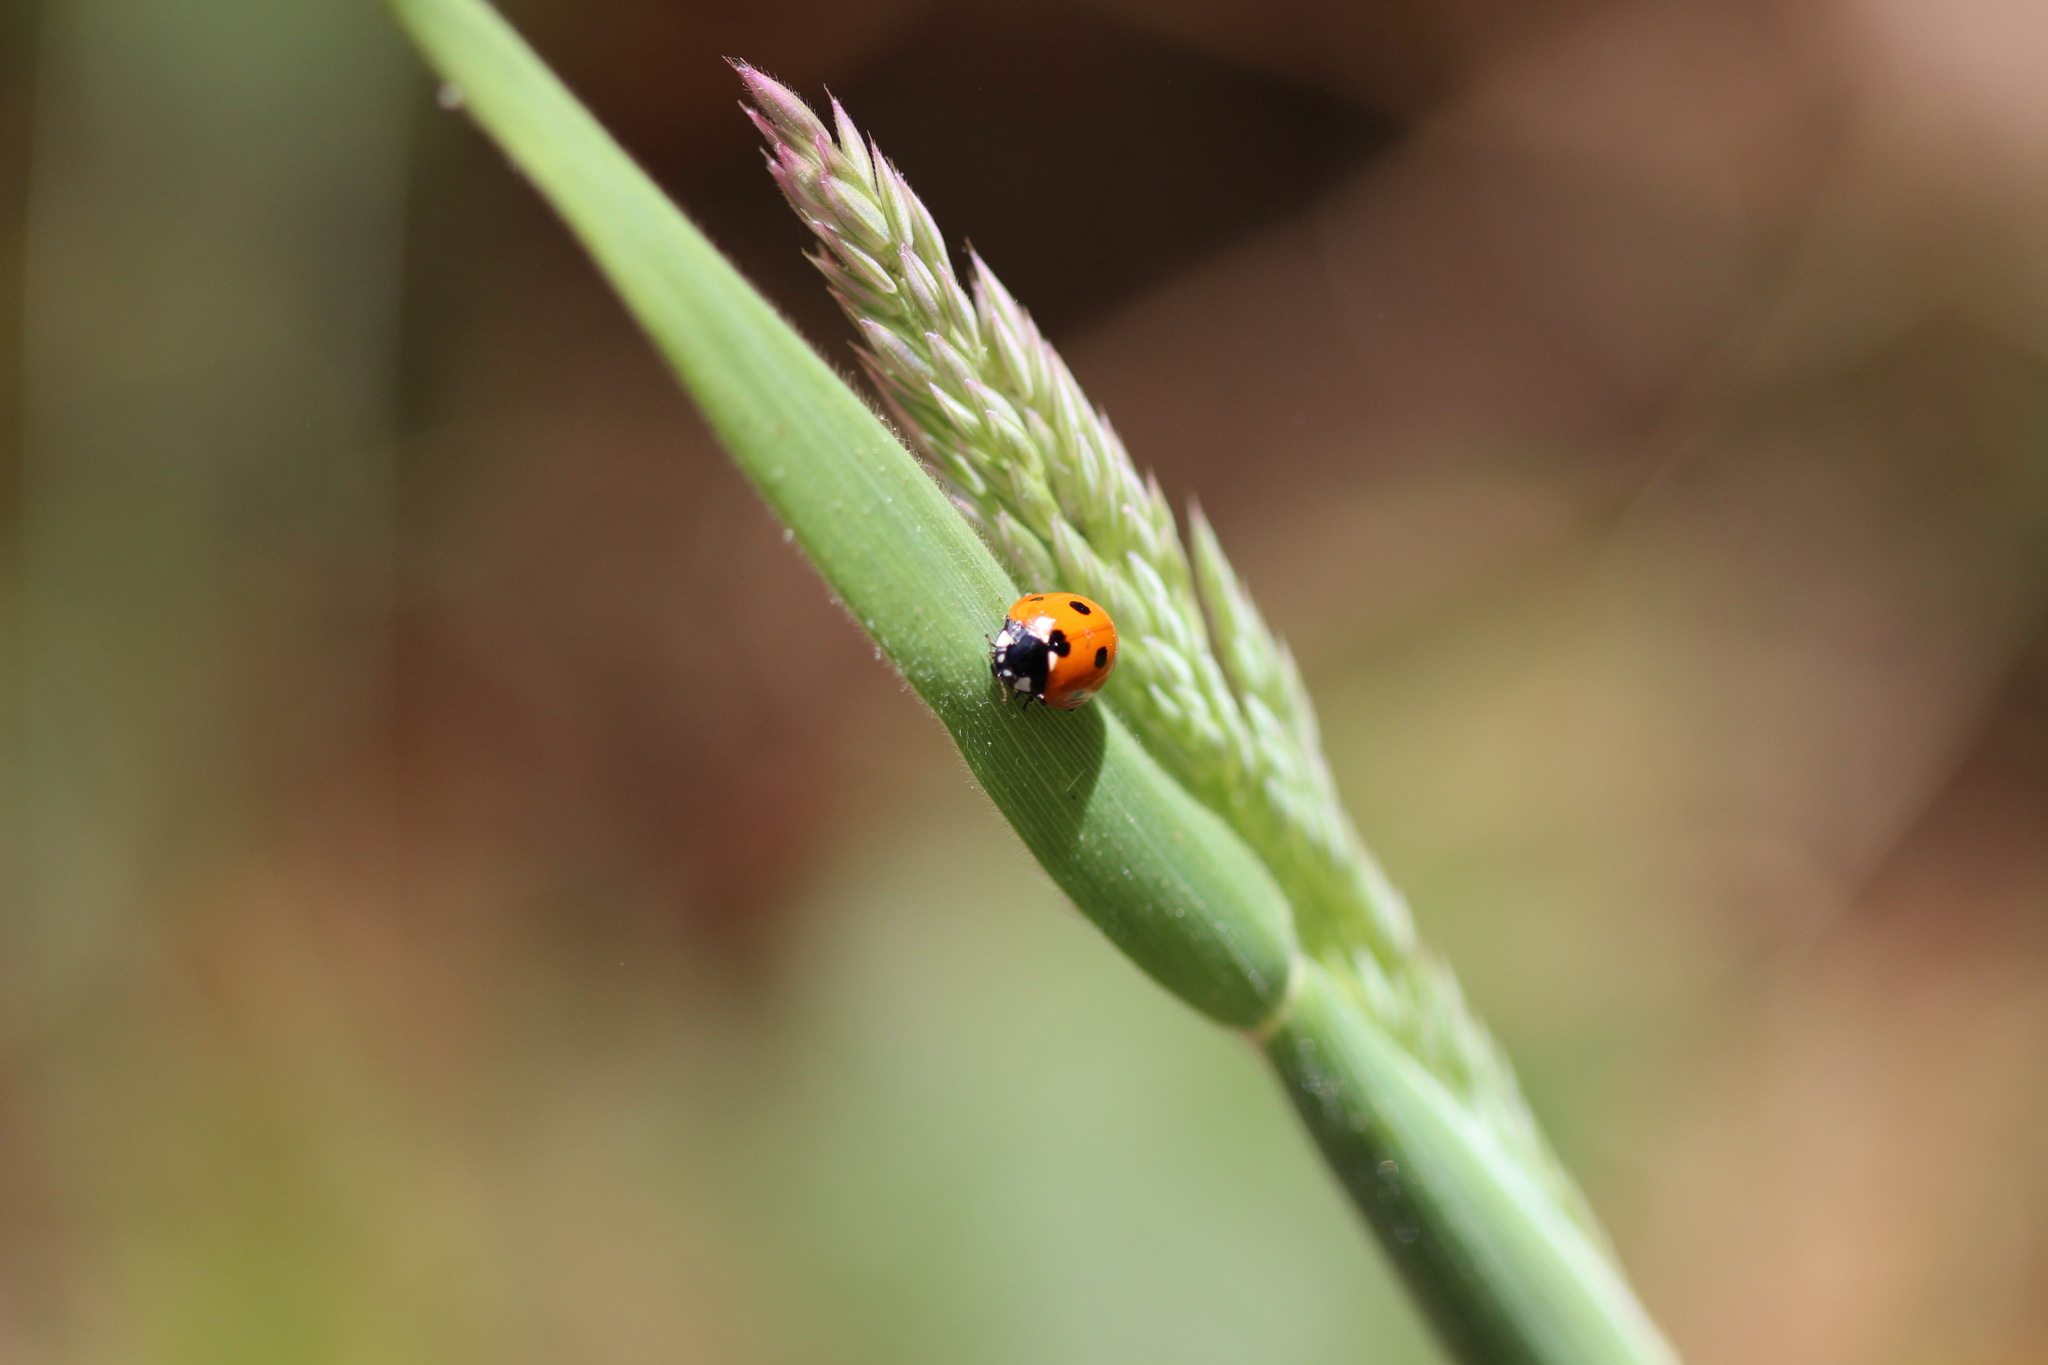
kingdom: Animalia
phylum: Arthropoda
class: Insecta
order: Coleoptera
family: Coccinellidae
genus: Coccinella
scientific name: Coccinella septempunctata
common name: Sevenspotted lady beetle
